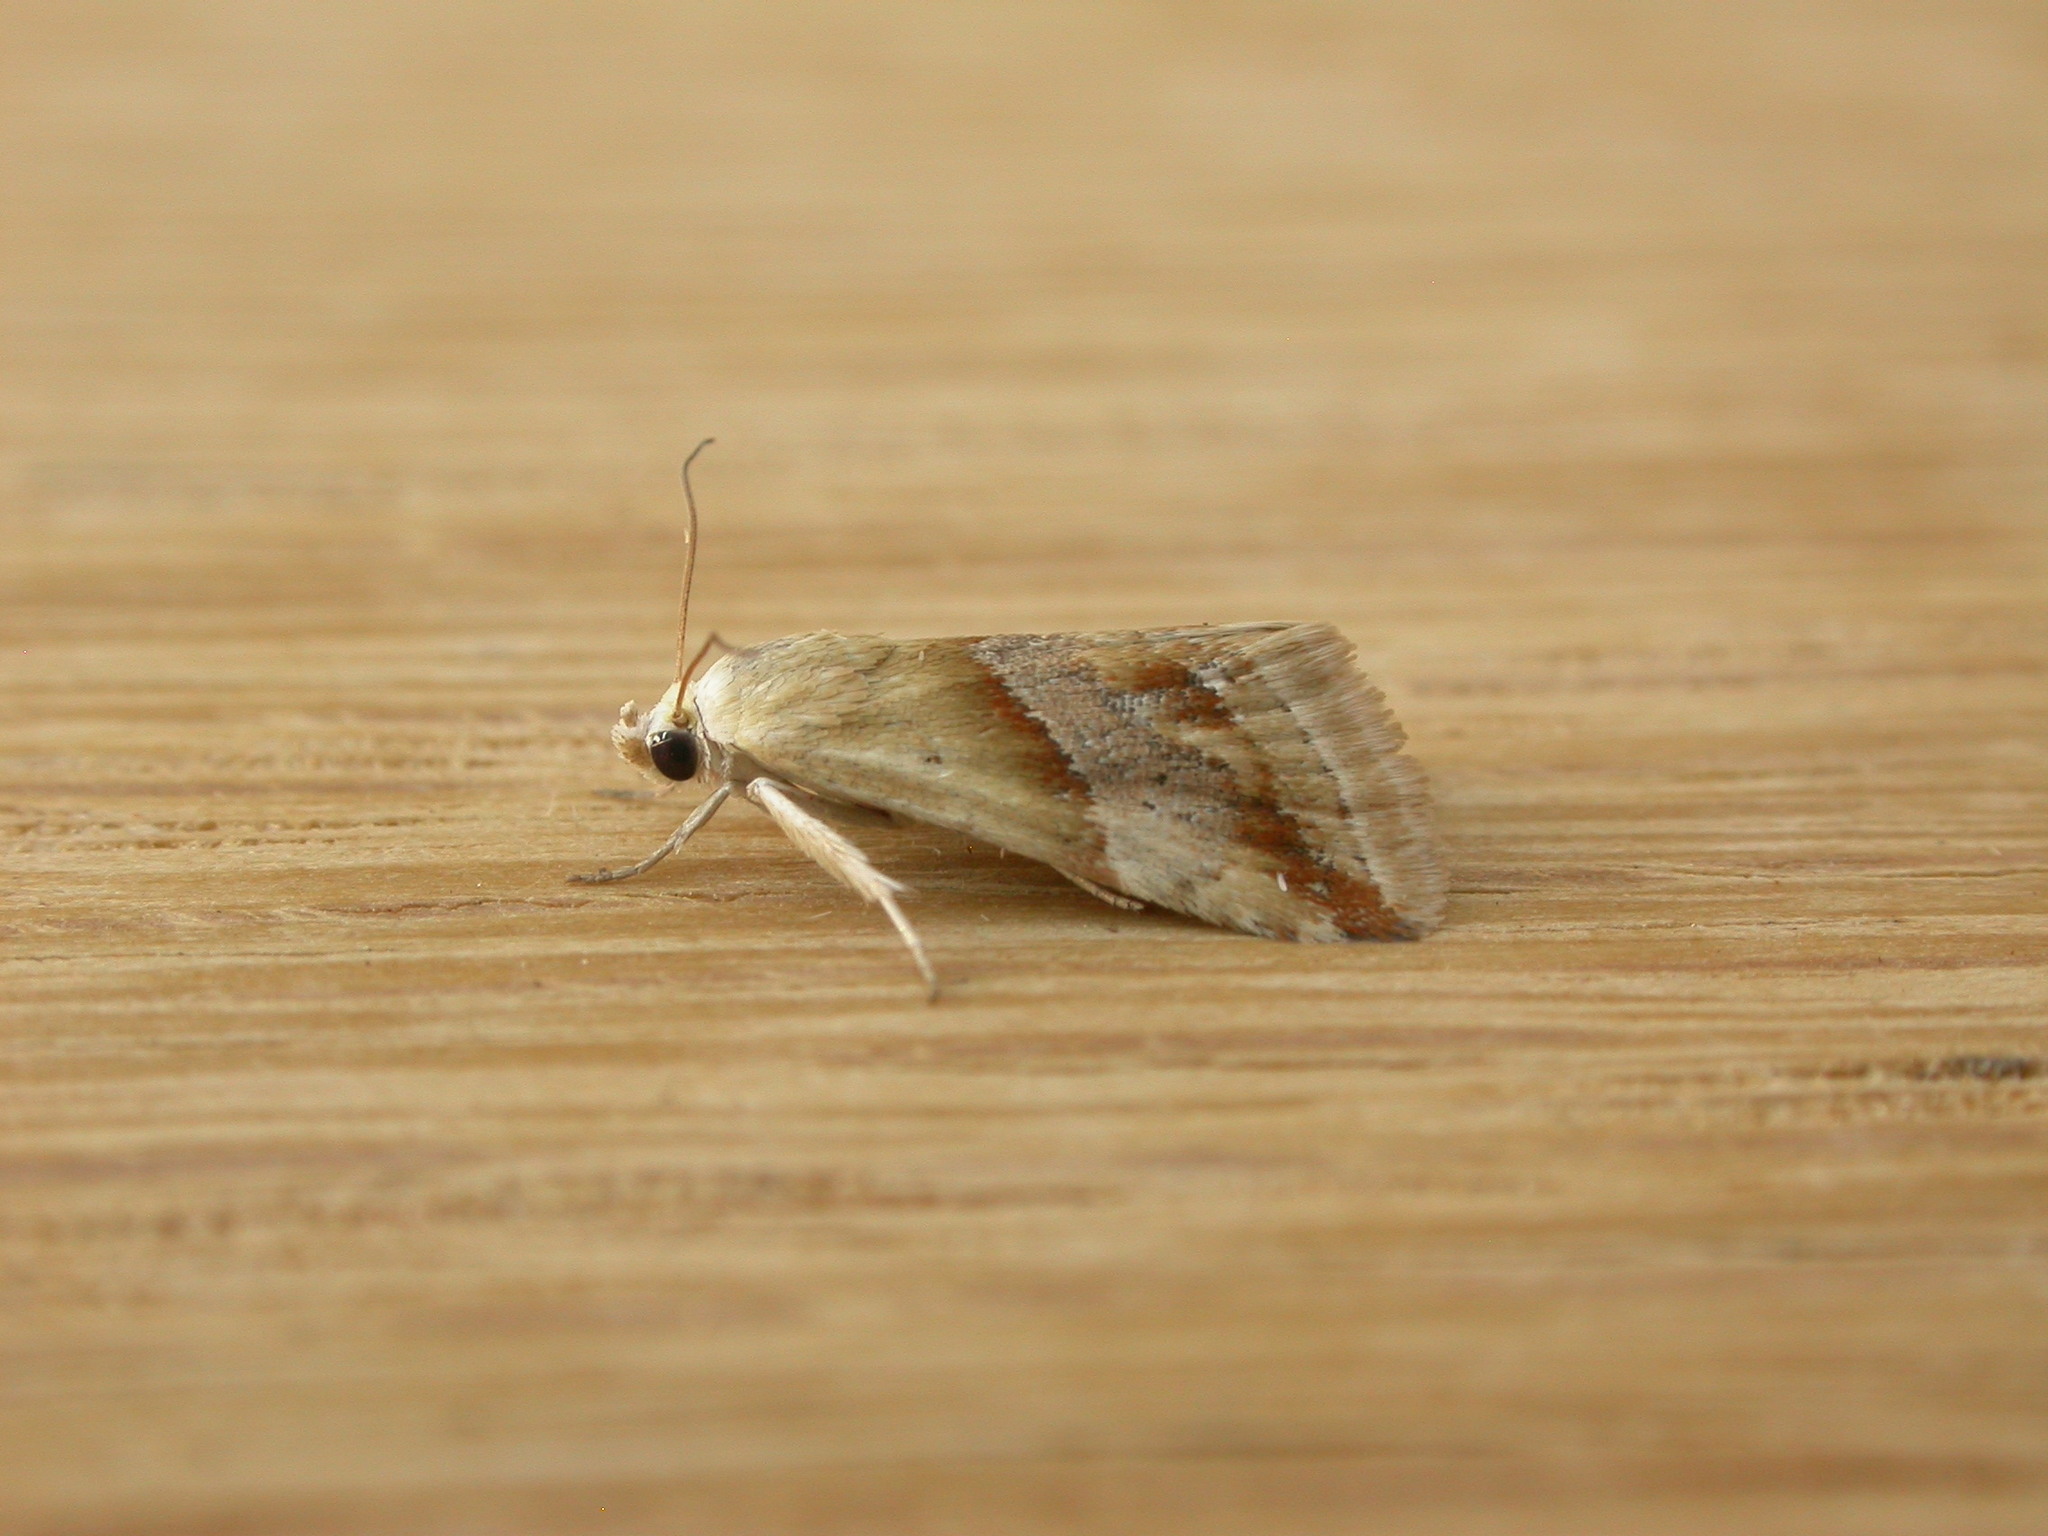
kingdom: Animalia
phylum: Arthropoda
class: Insecta
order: Lepidoptera
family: Noctuidae
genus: Eublemma
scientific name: Eublemma inconspicua
